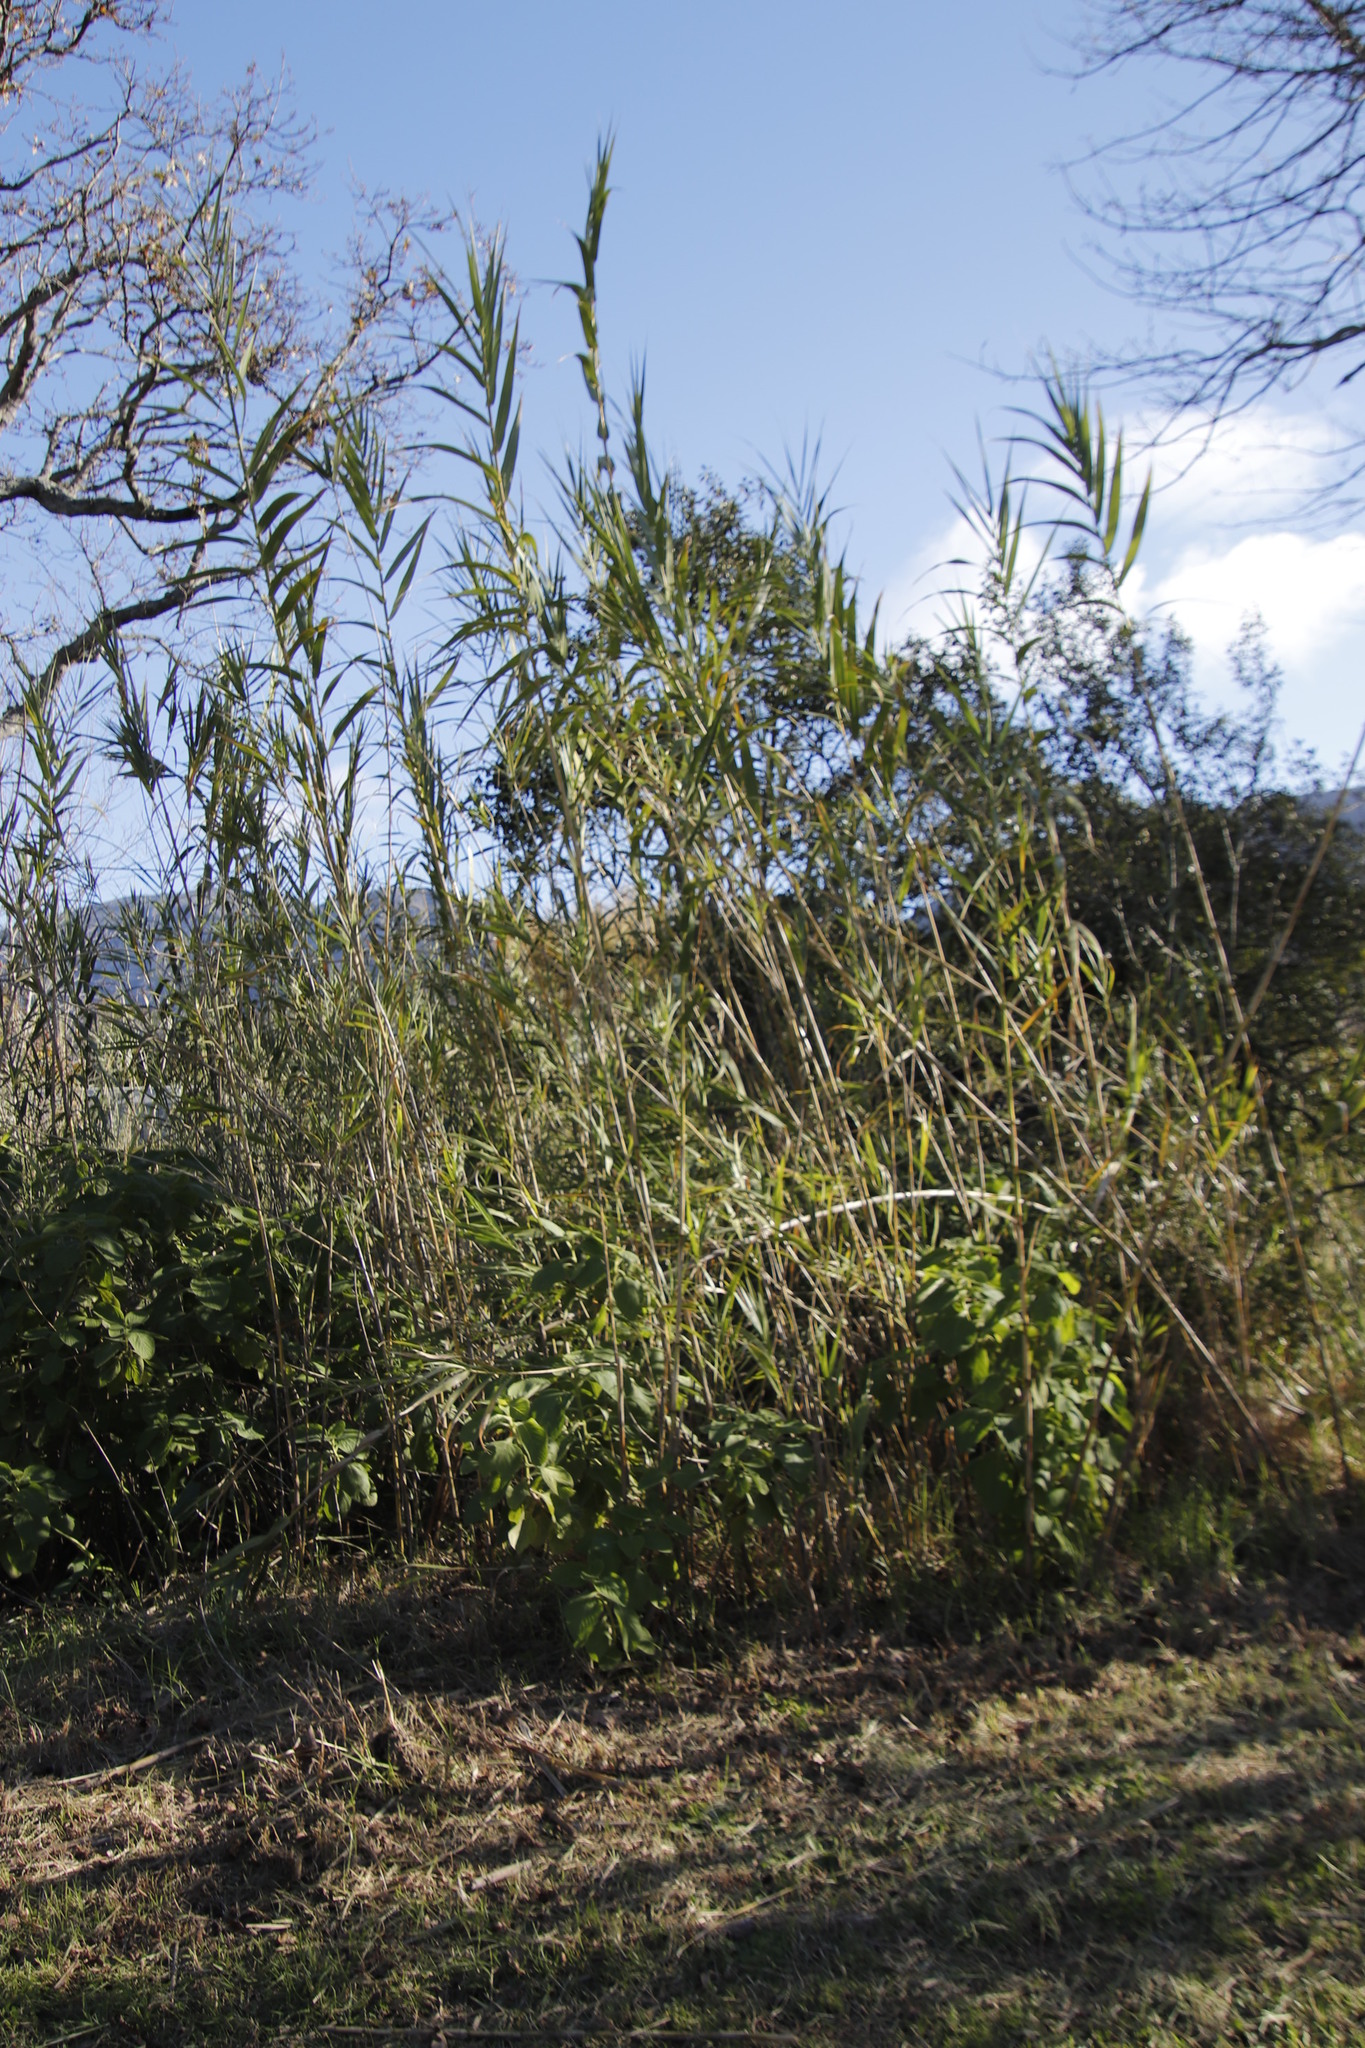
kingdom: Plantae
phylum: Tracheophyta
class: Liliopsida
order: Poales
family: Poaceae
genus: Arundo
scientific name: Arundo donax
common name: Giant reed
